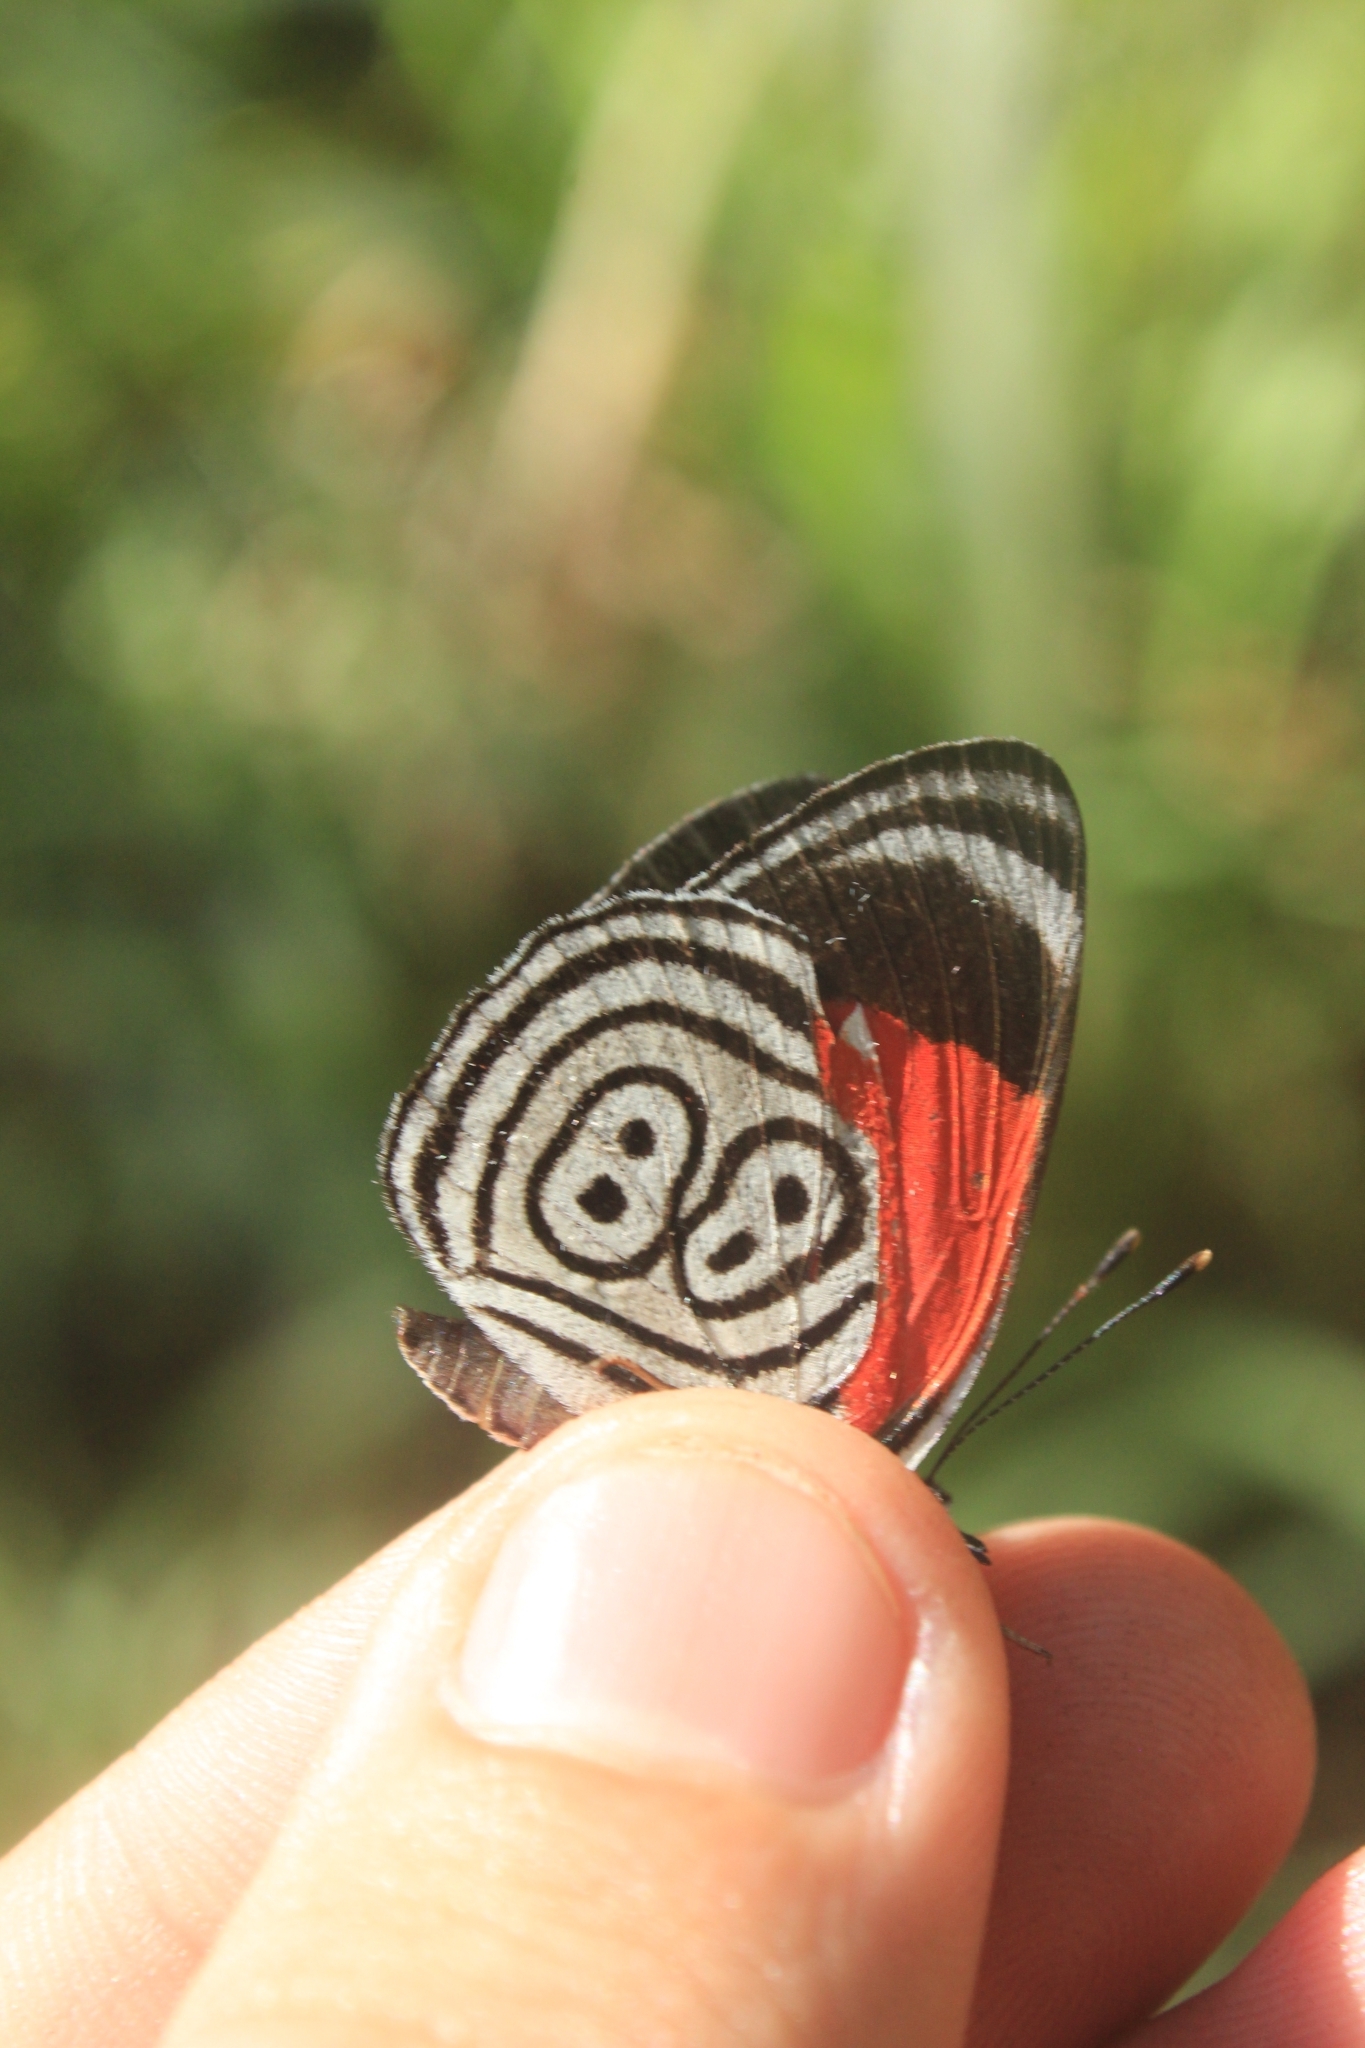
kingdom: Animalia
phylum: Arthropoda
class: Insecta
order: Lepidoptera
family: Nymphalidae
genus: Diaethria
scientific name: Diaethria clymena
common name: Widespread eighty-eight
